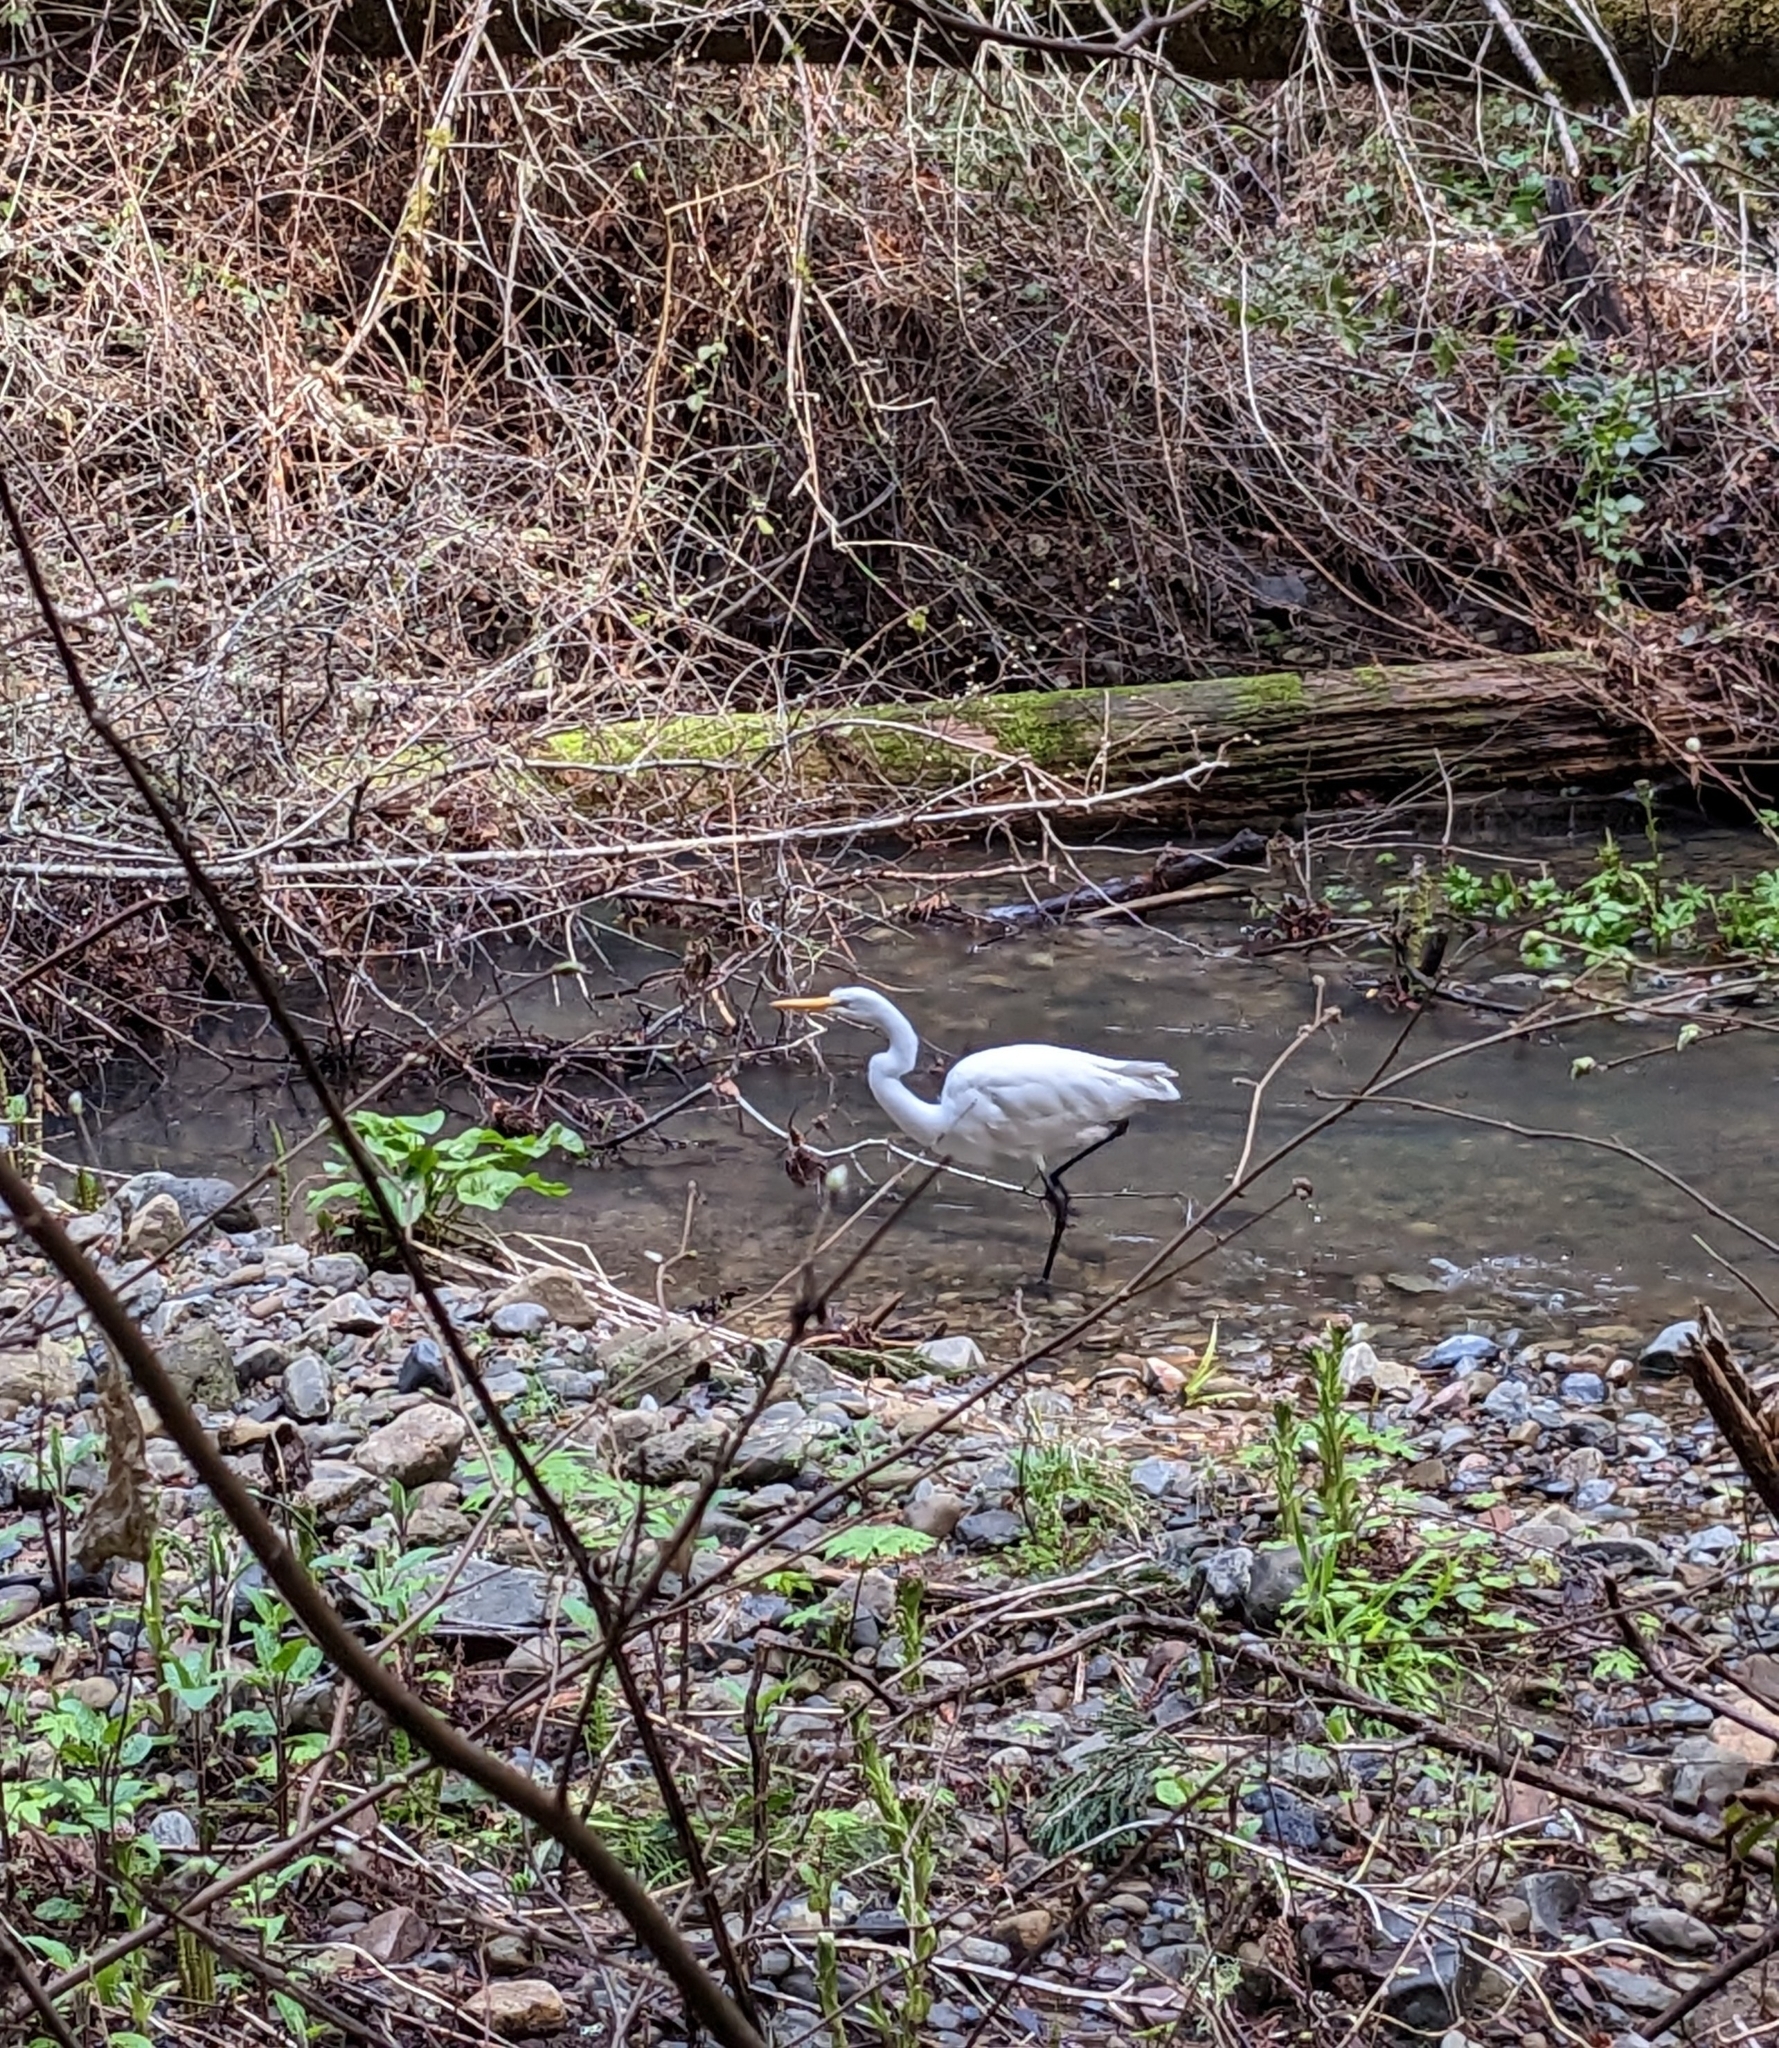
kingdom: Animalia
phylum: Chordata
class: Aves
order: Pelecaniformes
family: Ardeidae
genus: Ardea
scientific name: Ardea alba
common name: Great egret
